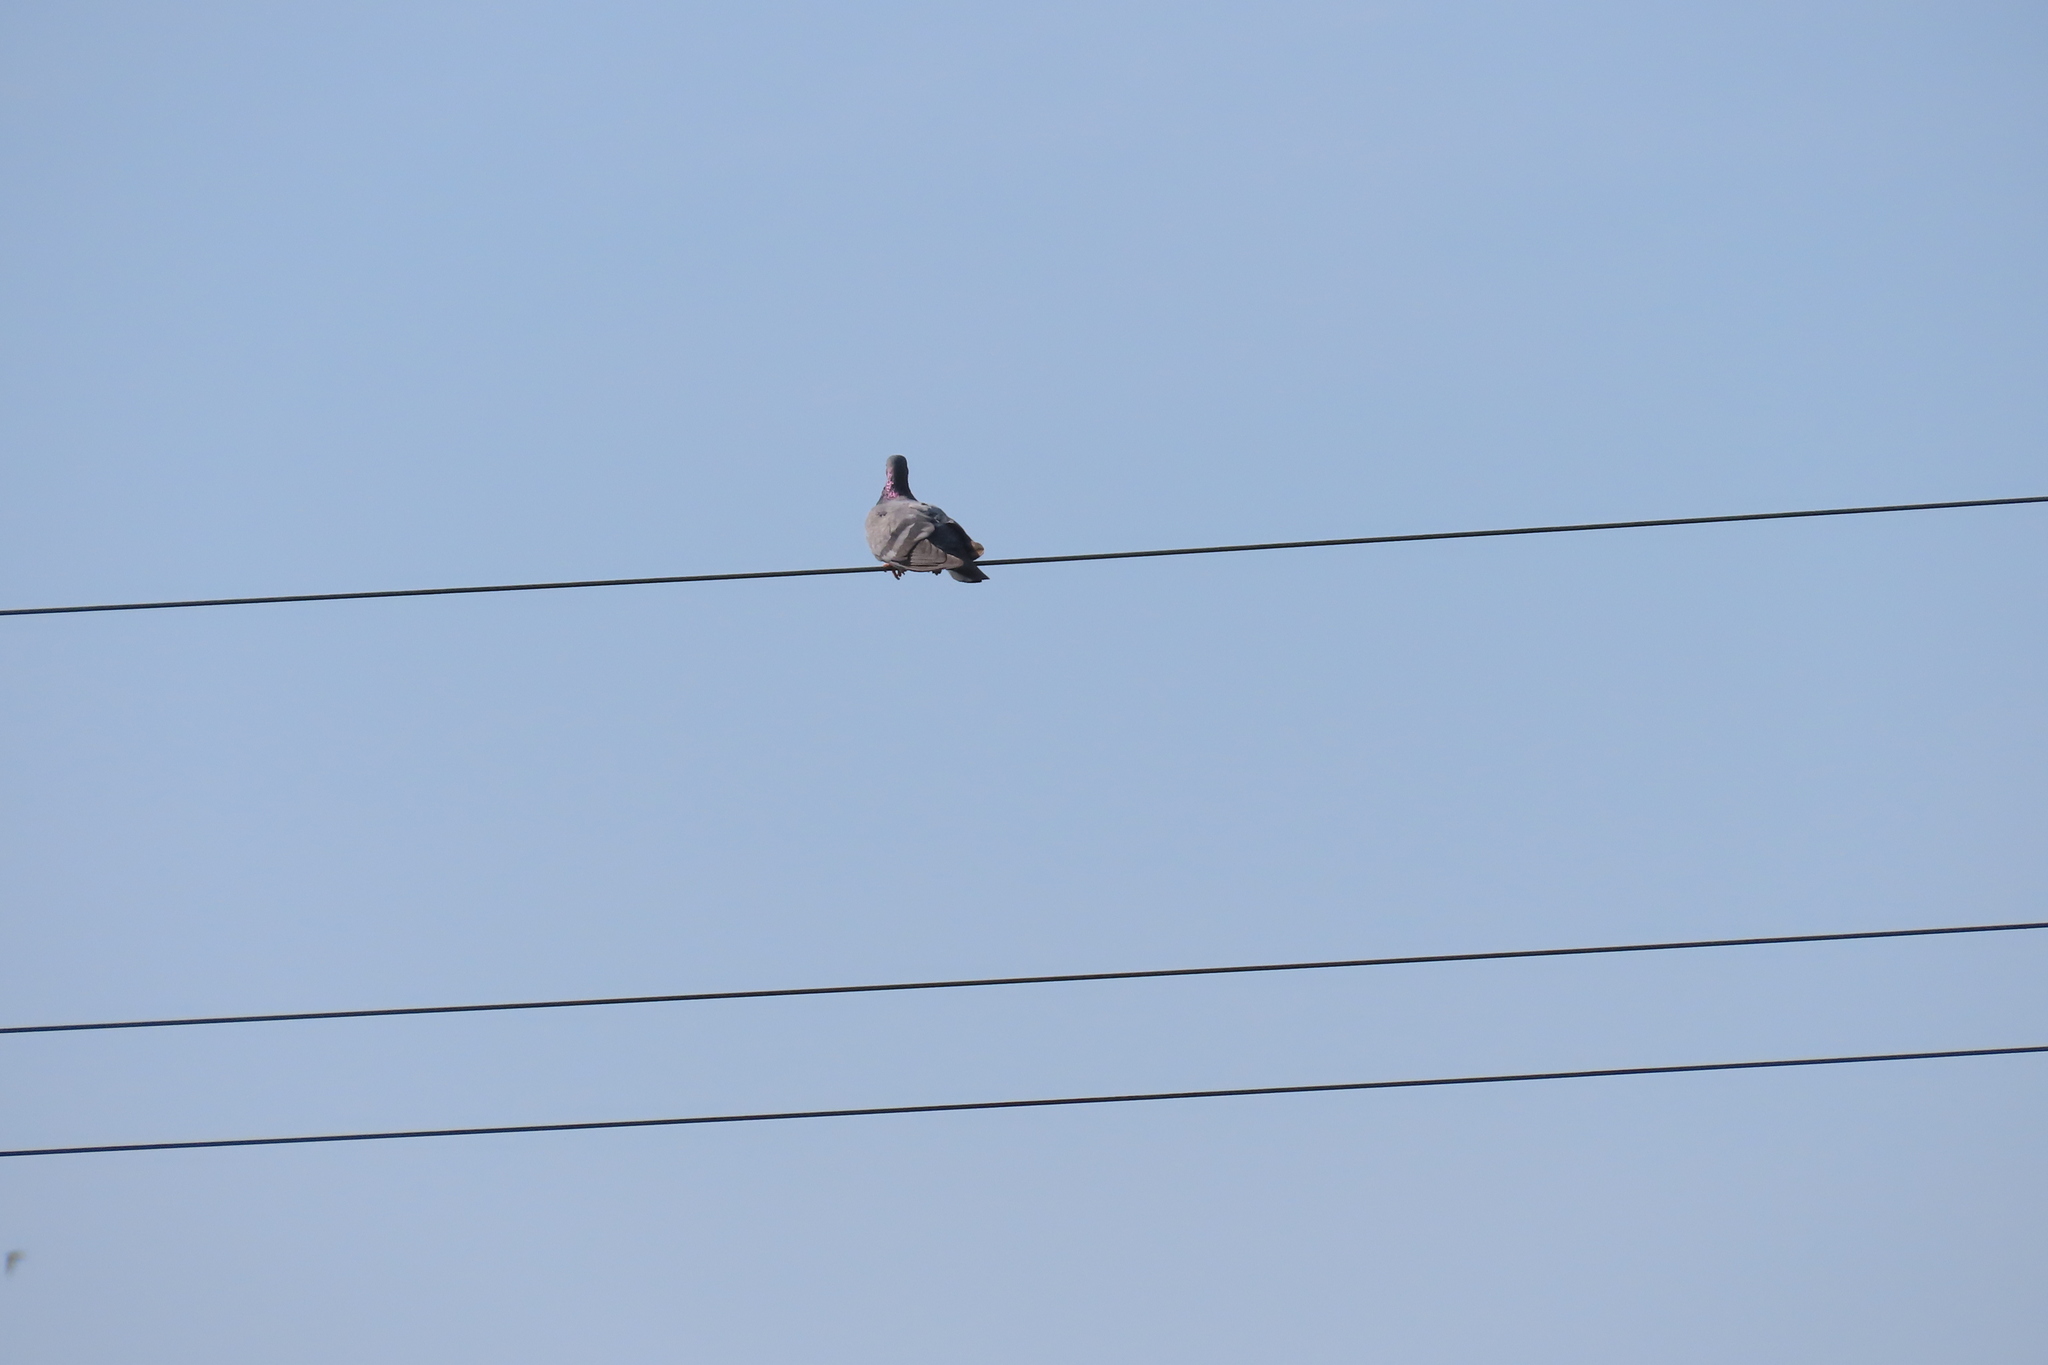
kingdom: Animalia
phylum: Chordata
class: Aves
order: Columbiformes
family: Columbidae
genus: Columba
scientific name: Columba livia
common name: Rock pigeon
